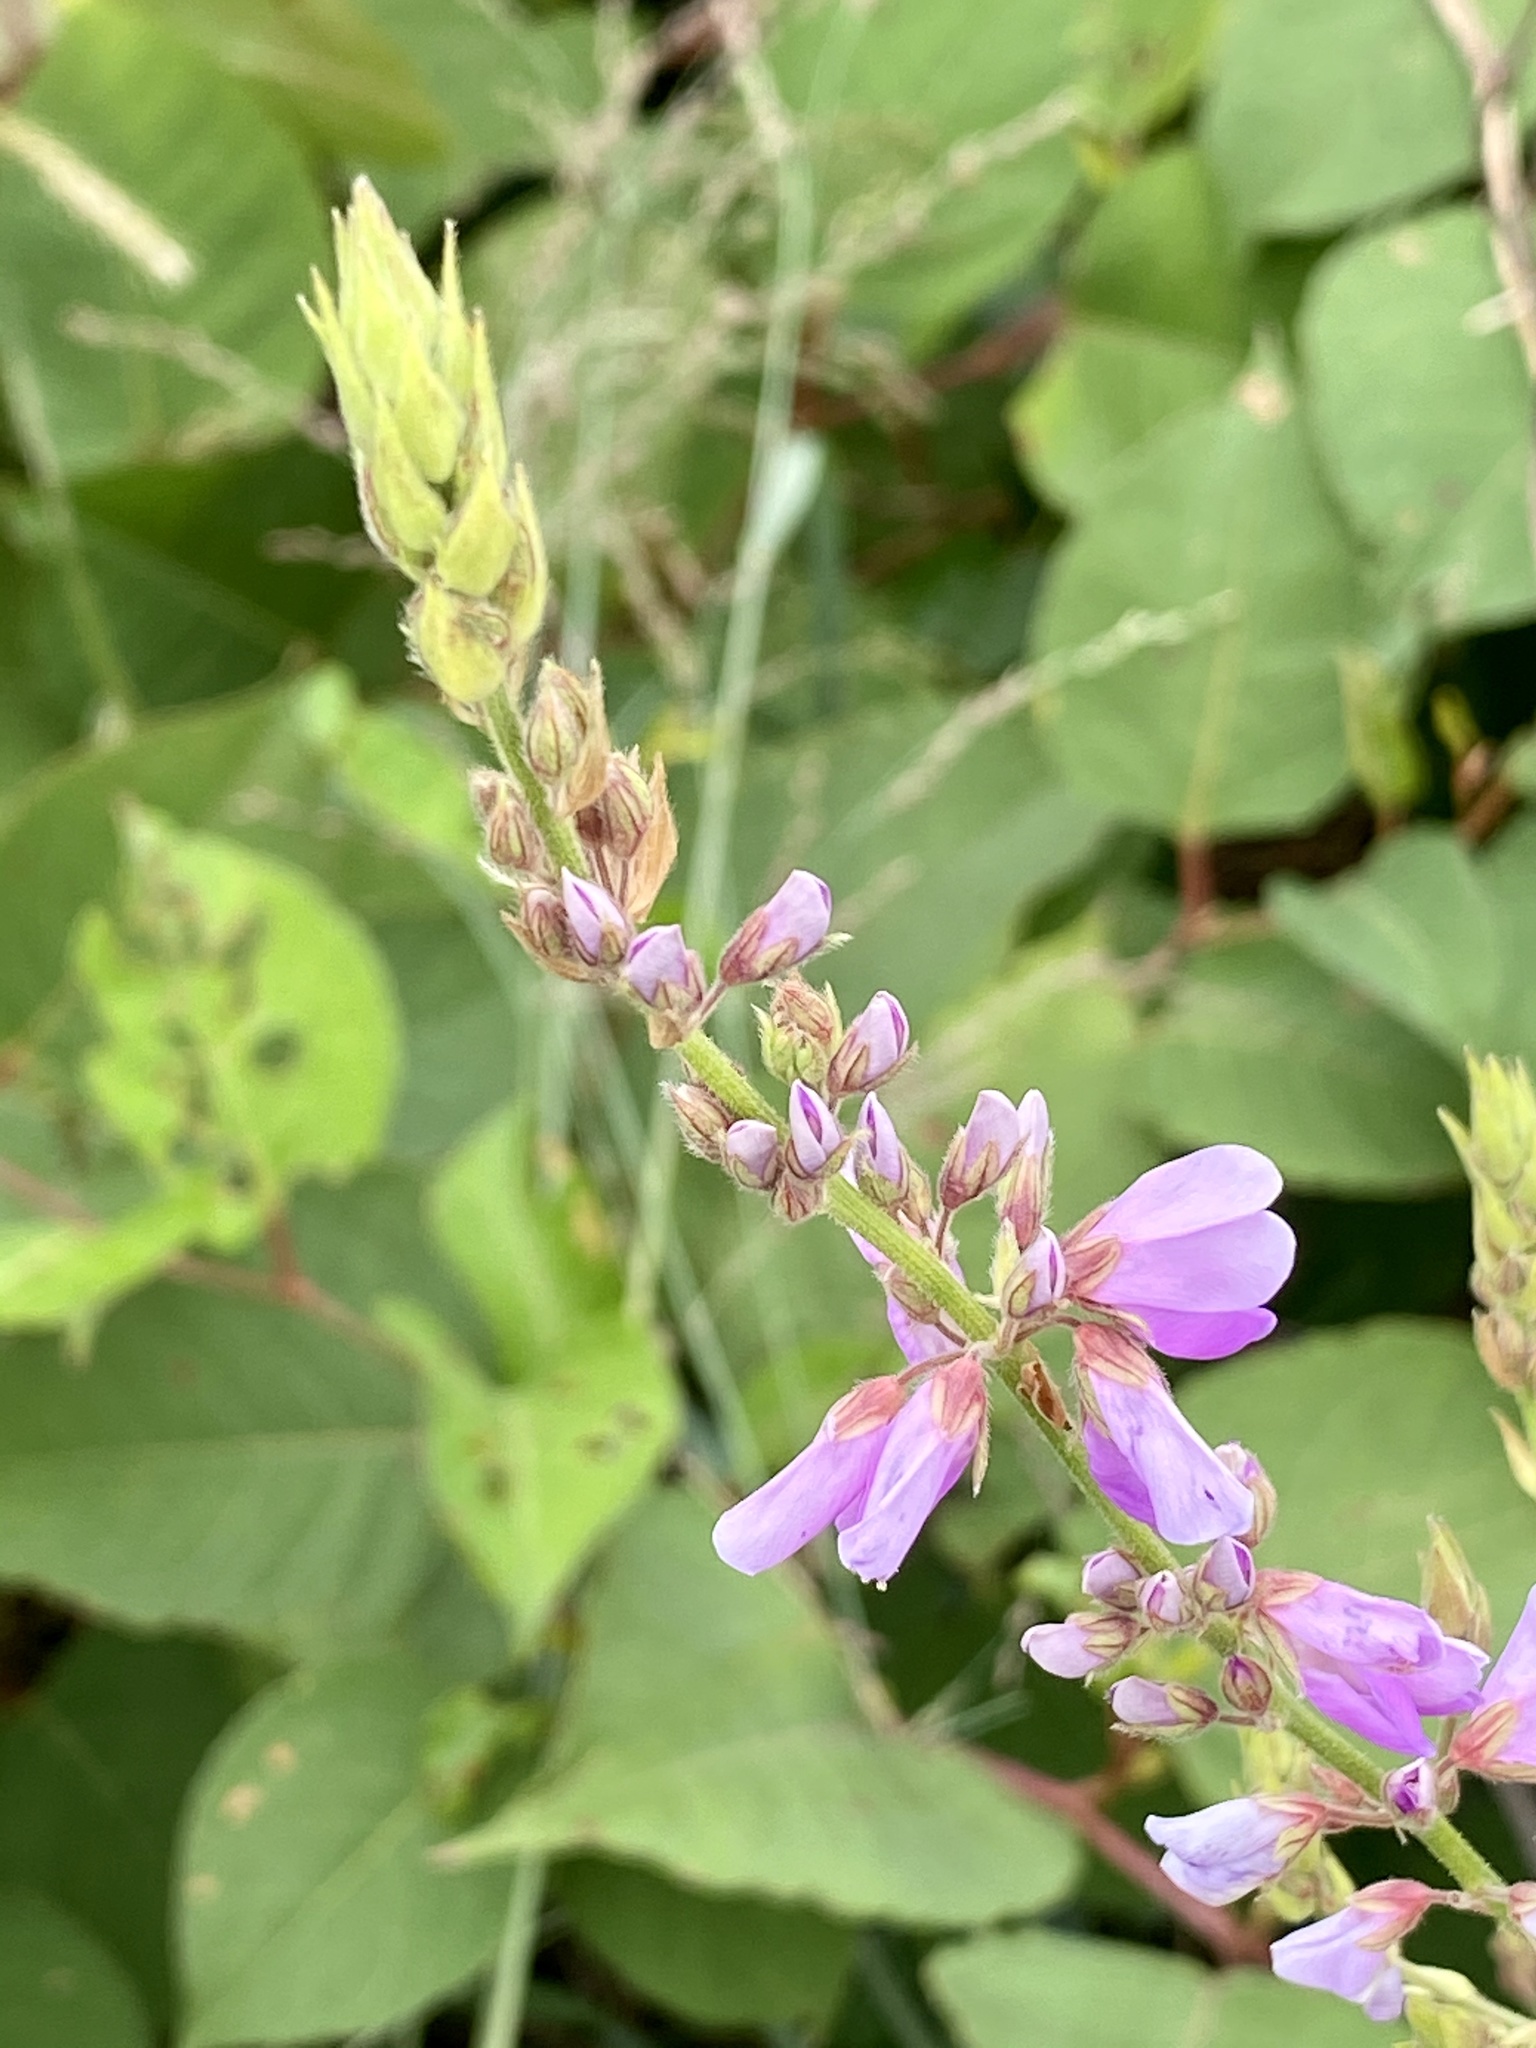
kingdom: Plantae
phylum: Tracheophyta
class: Magnoliopsida
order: Fabales
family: Fabaceae
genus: Desmodium
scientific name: Desmodium canadense
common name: Canada tick-trefoil
